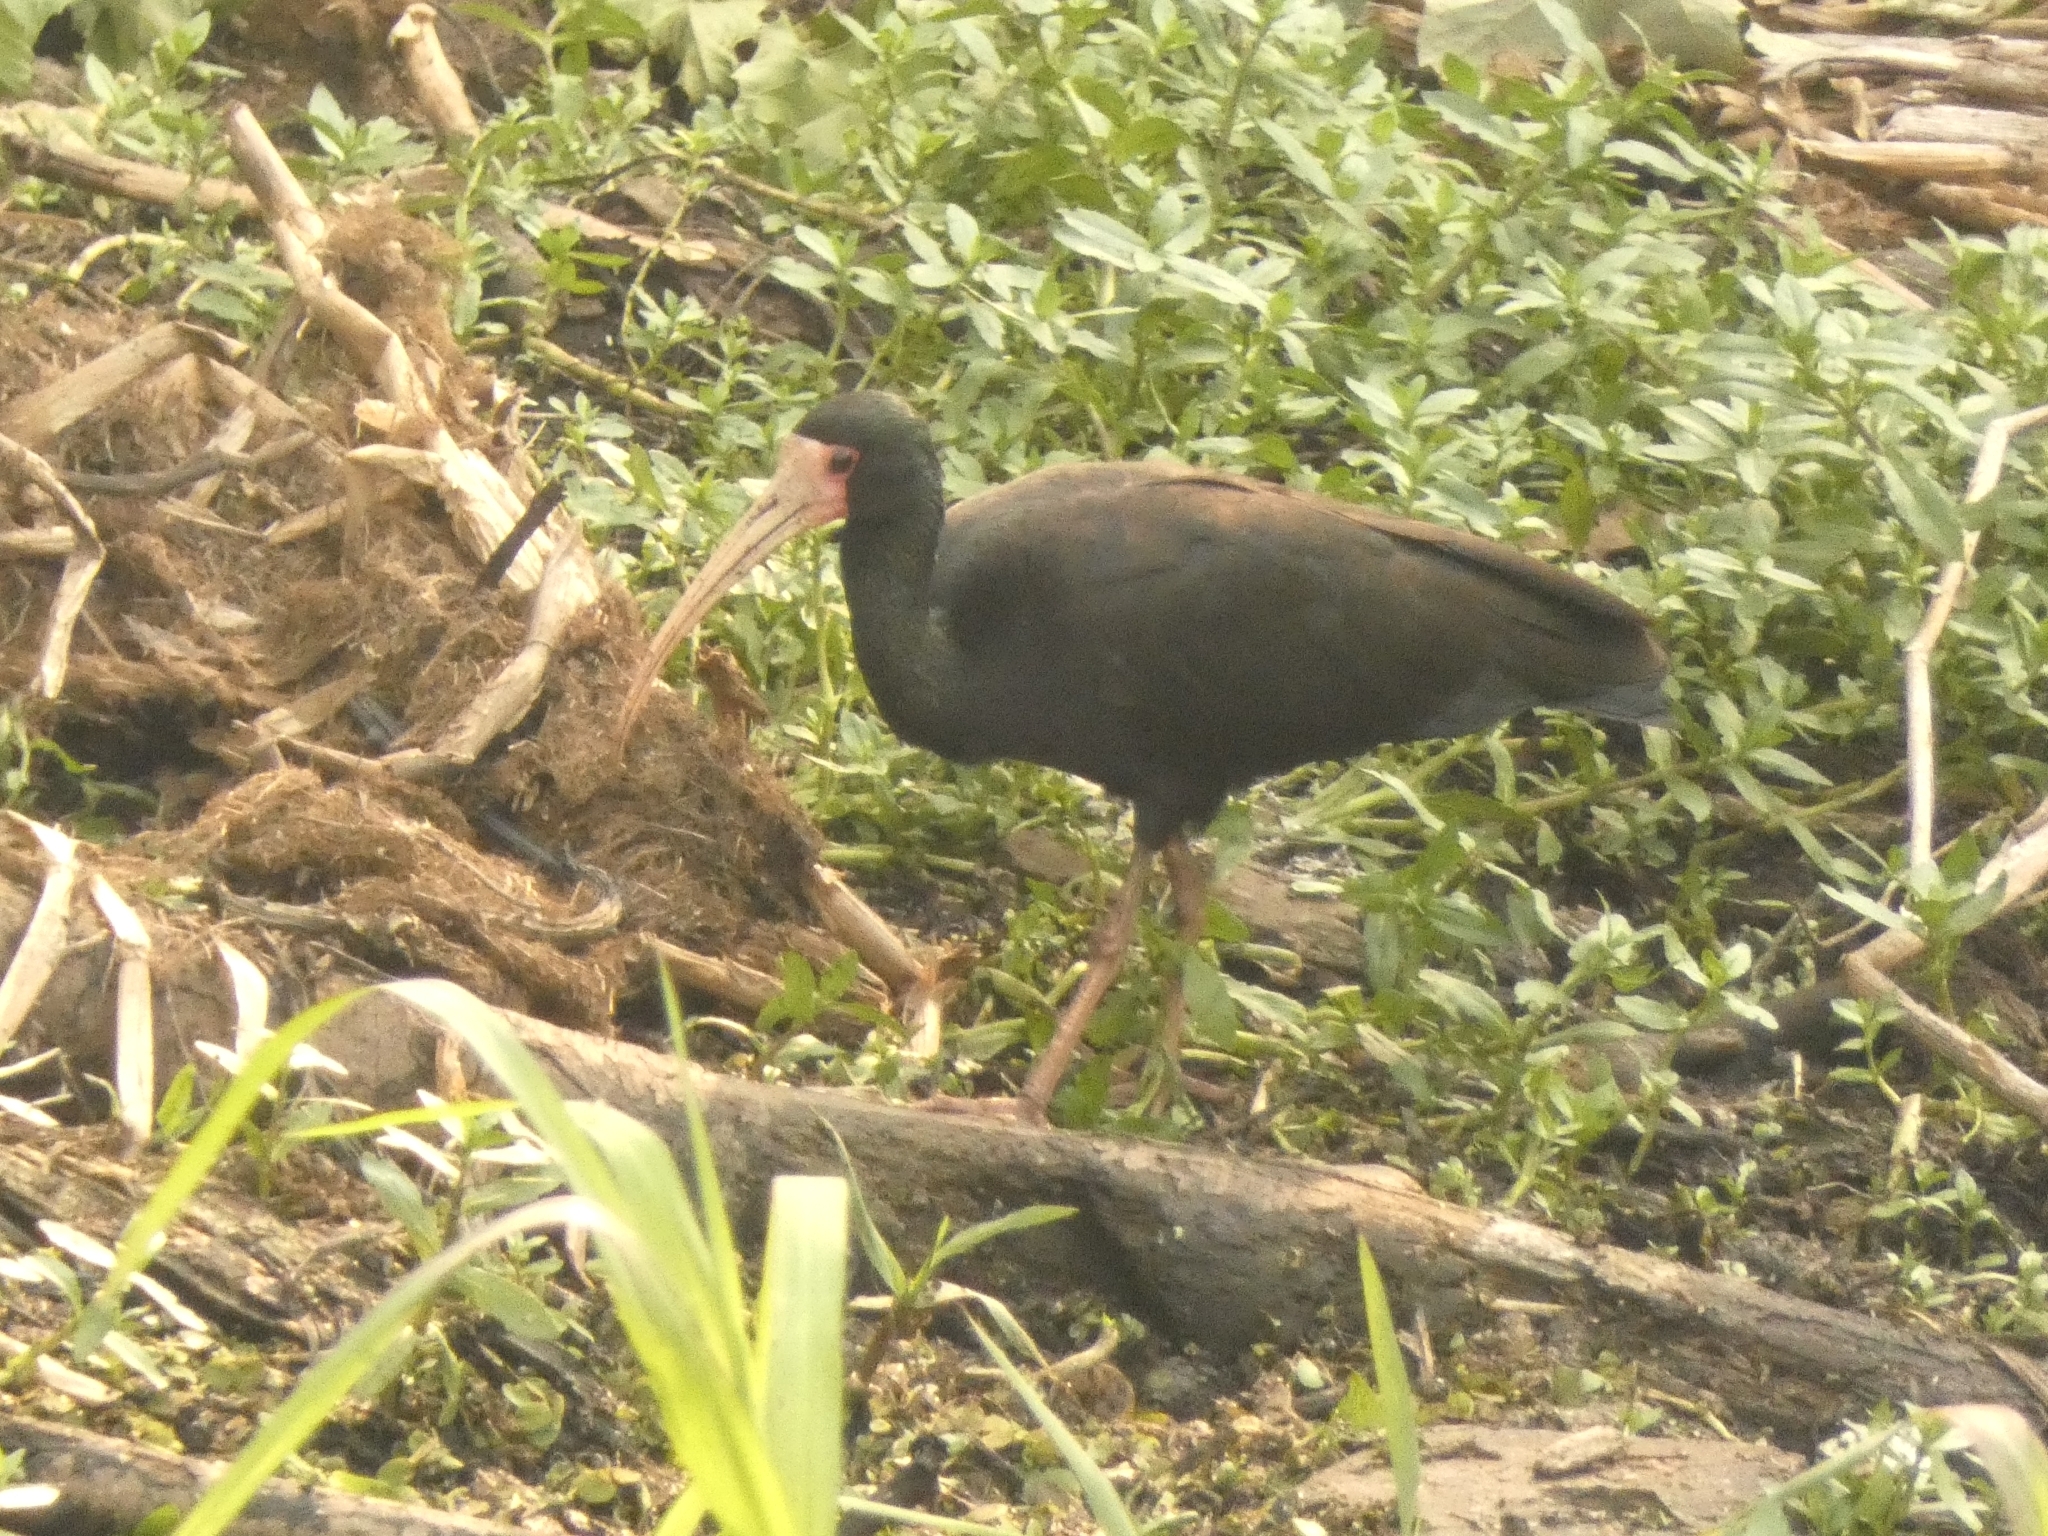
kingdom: Animalia
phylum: Chordata
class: Aves
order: Pelecaniformes
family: Threskiornithidae
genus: Phimosus
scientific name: Phimosus infuscatus
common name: Bare-faced ibis
